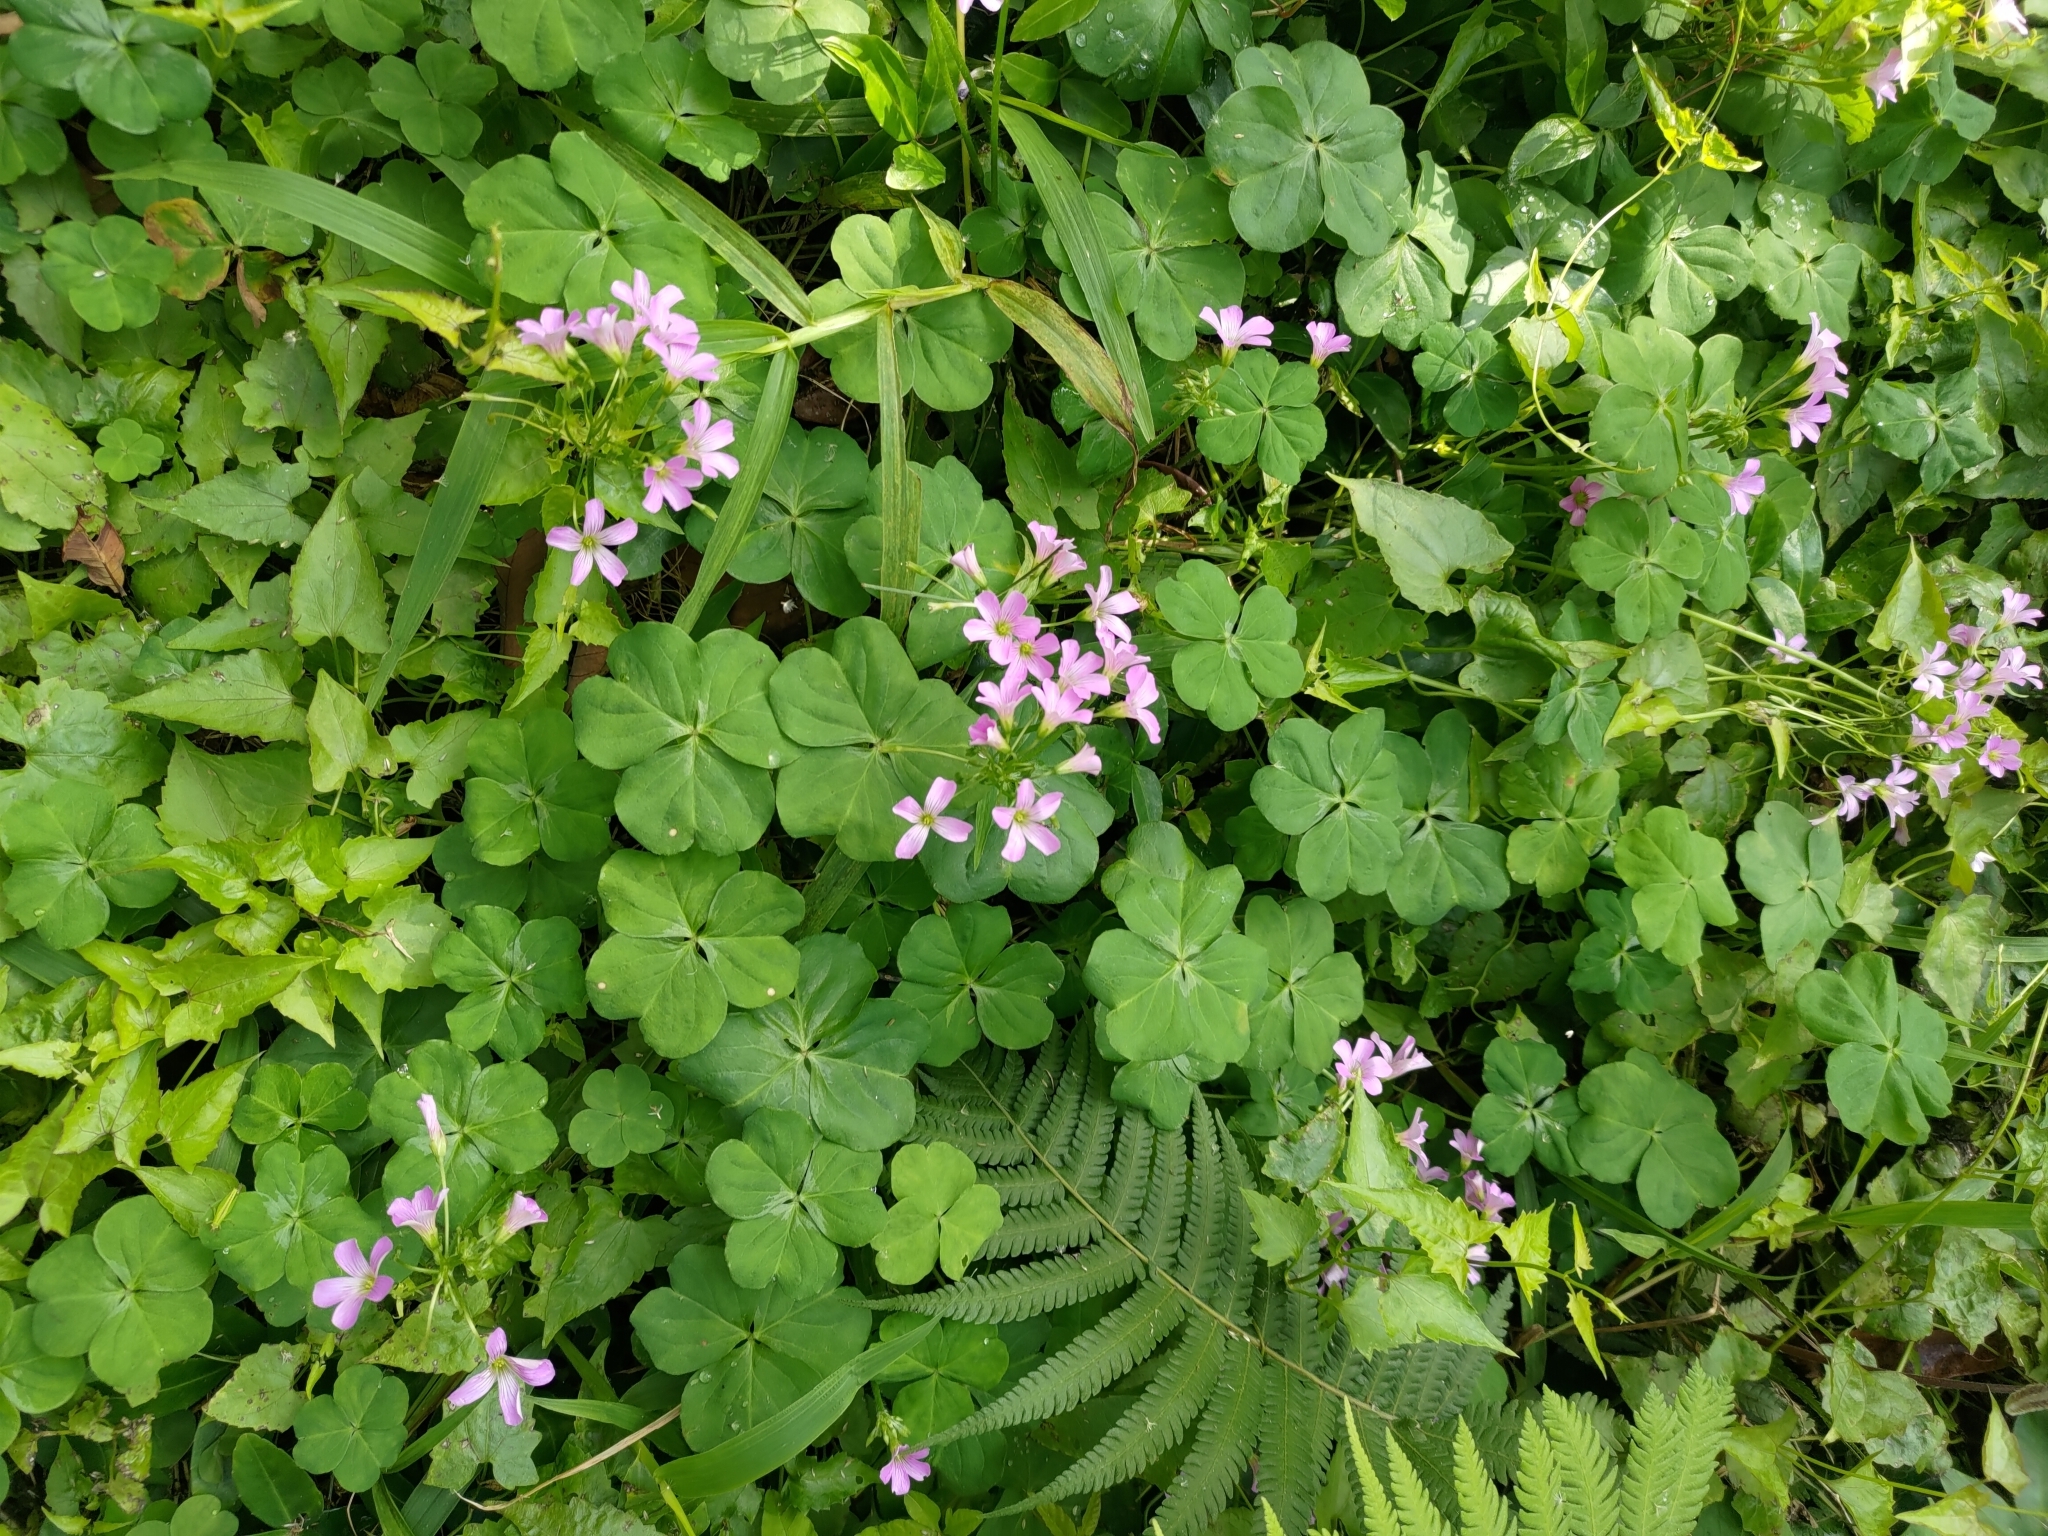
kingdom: Plantae
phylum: Tracheophyta
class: Magnoliopsida
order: Oxalidales
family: Oxalidaceae
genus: Oxalis
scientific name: Oxalis debilis
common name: Large-flowered pink-sorrel
